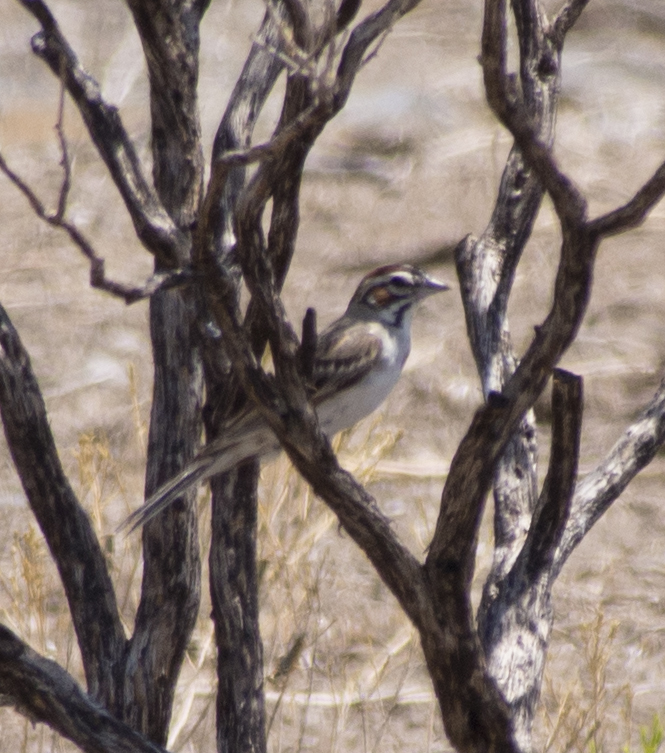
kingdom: Animalia
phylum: Chordata
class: Aves
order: Passeriformes
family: Passerellidae
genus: Chondestes
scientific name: Chondestes grammacus
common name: Lark sparrow
